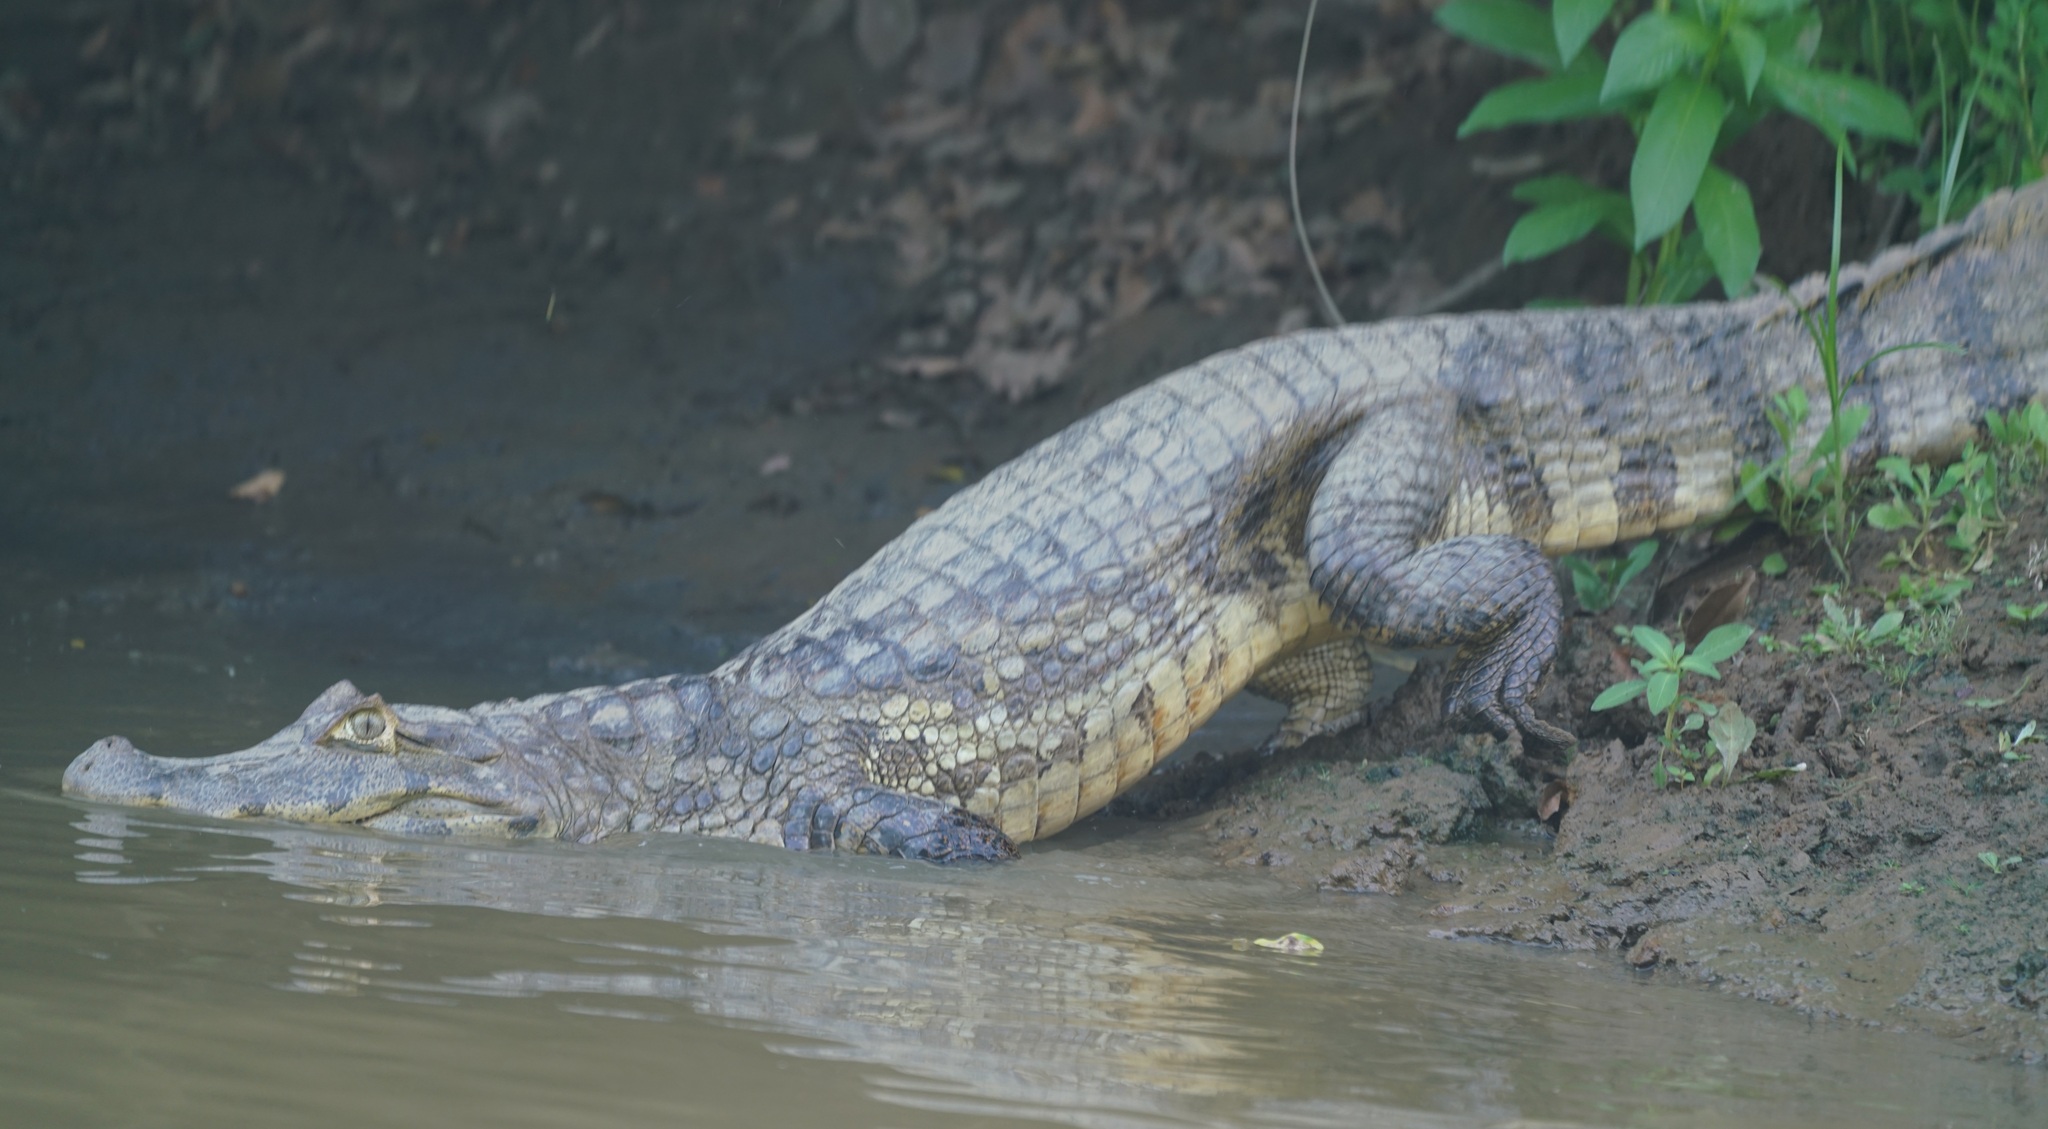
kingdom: Animalia
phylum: Chordata
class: Crocodylia
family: Alligatoridae
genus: Caiman
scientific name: Caiman yacare
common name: Yacare caiman
